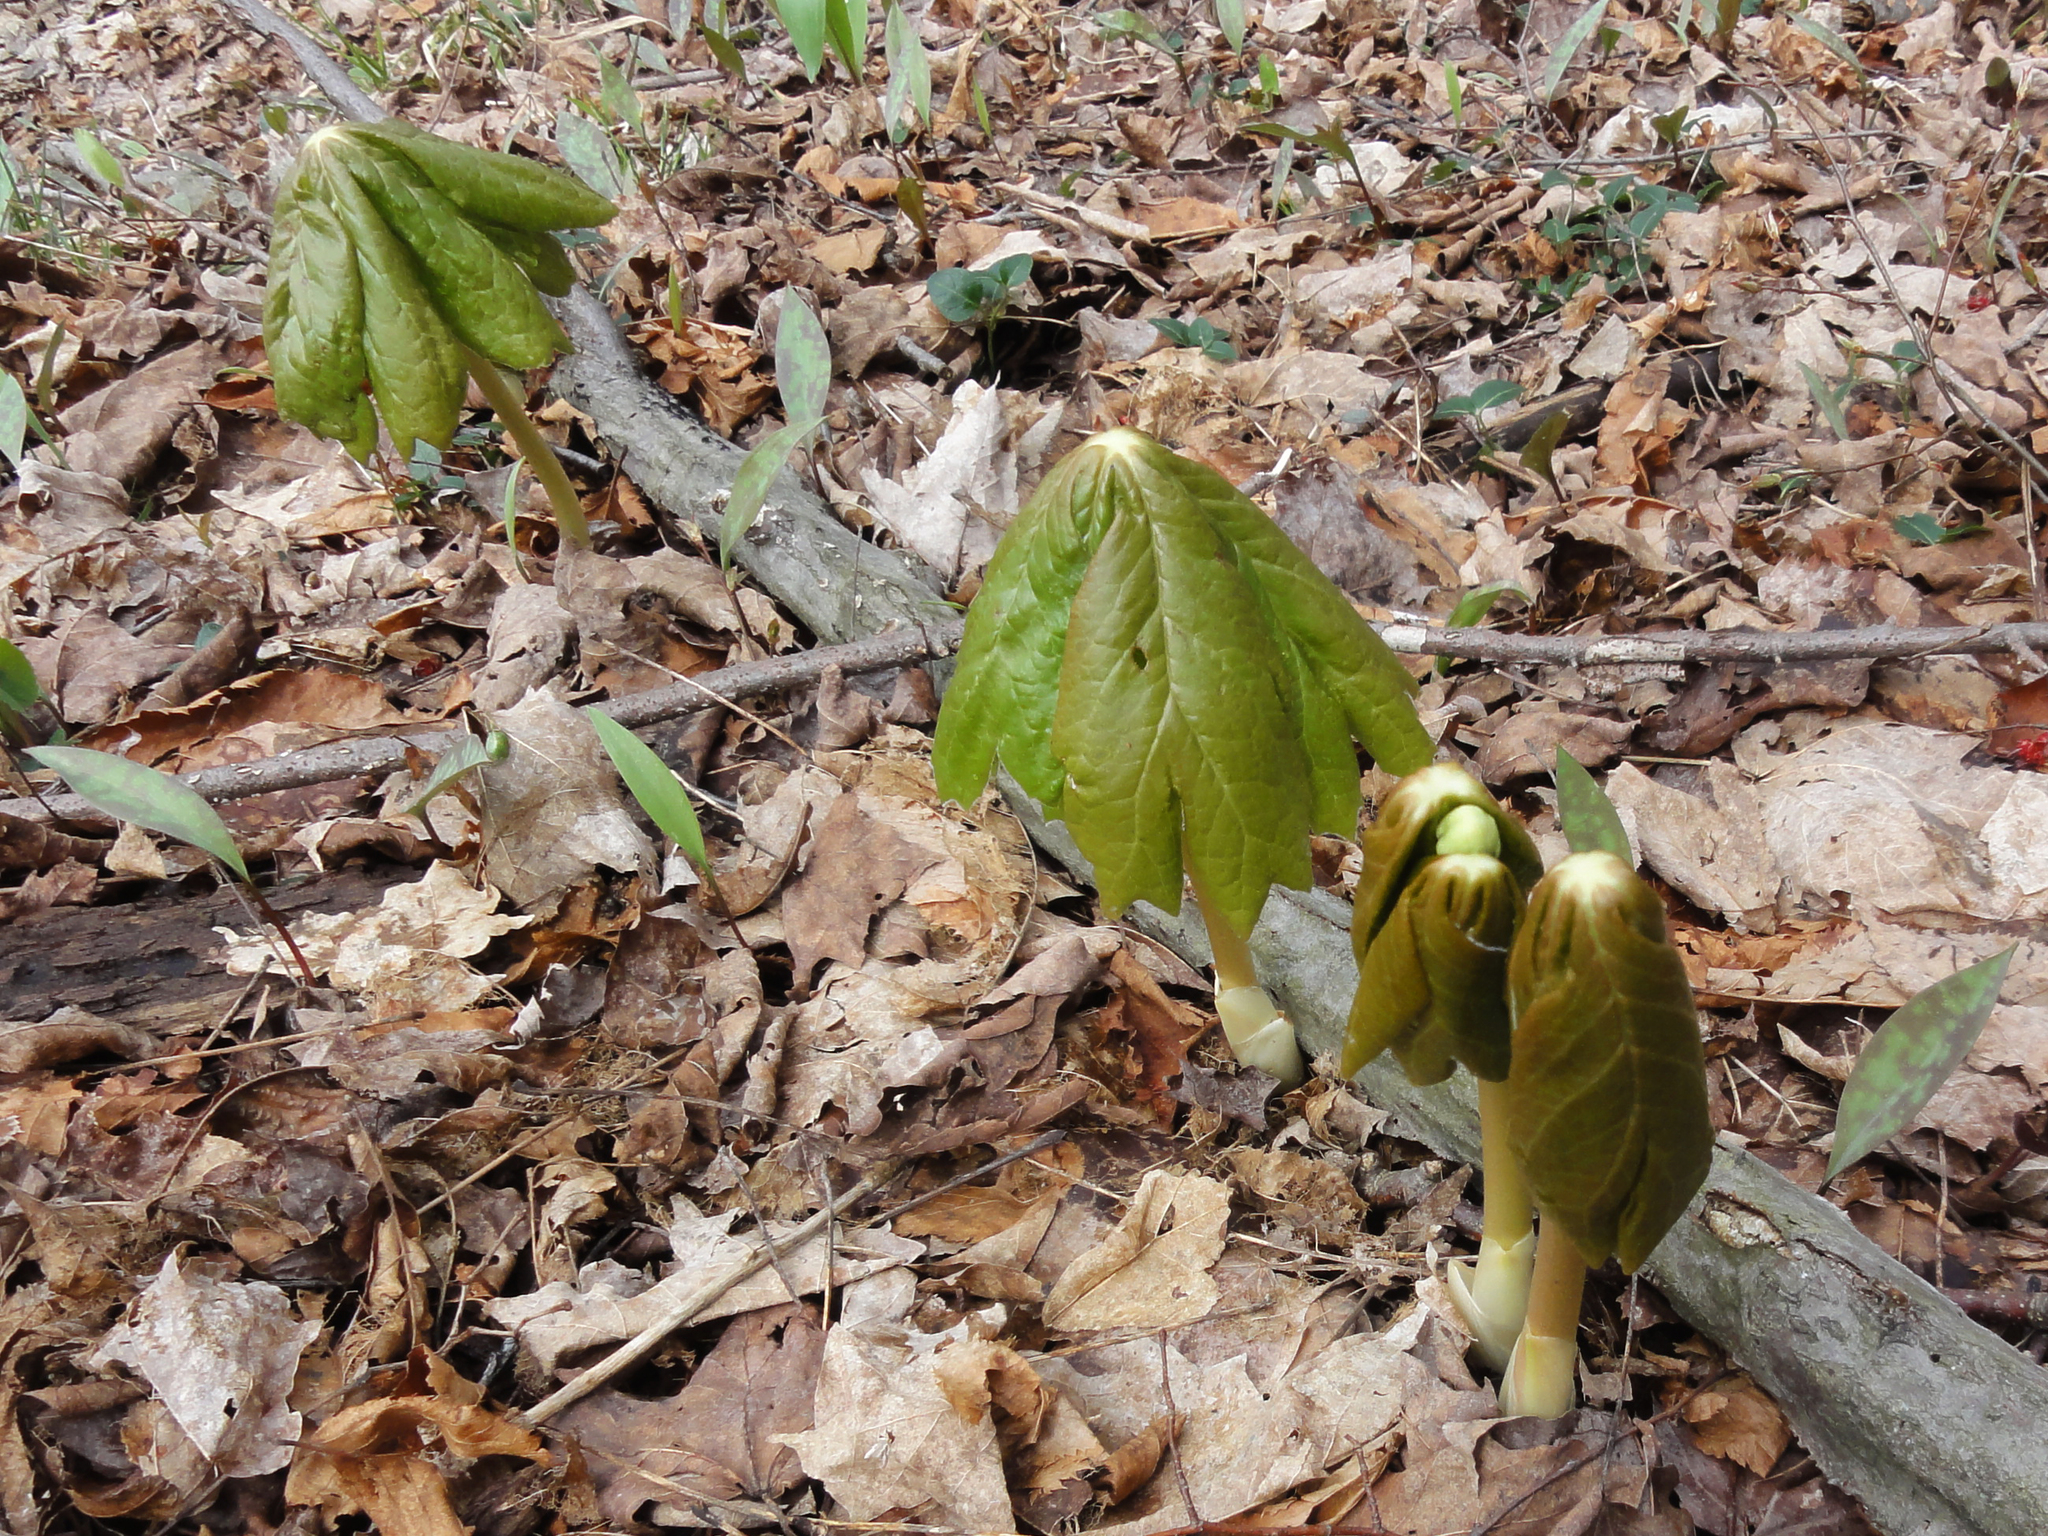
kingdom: Plantae
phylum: Tracheophyta
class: Magnoliopsida
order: Ranunculales
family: Berberidaceae
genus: Podophyllum
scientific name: Podophyllum peltatum
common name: Wild mandrake
